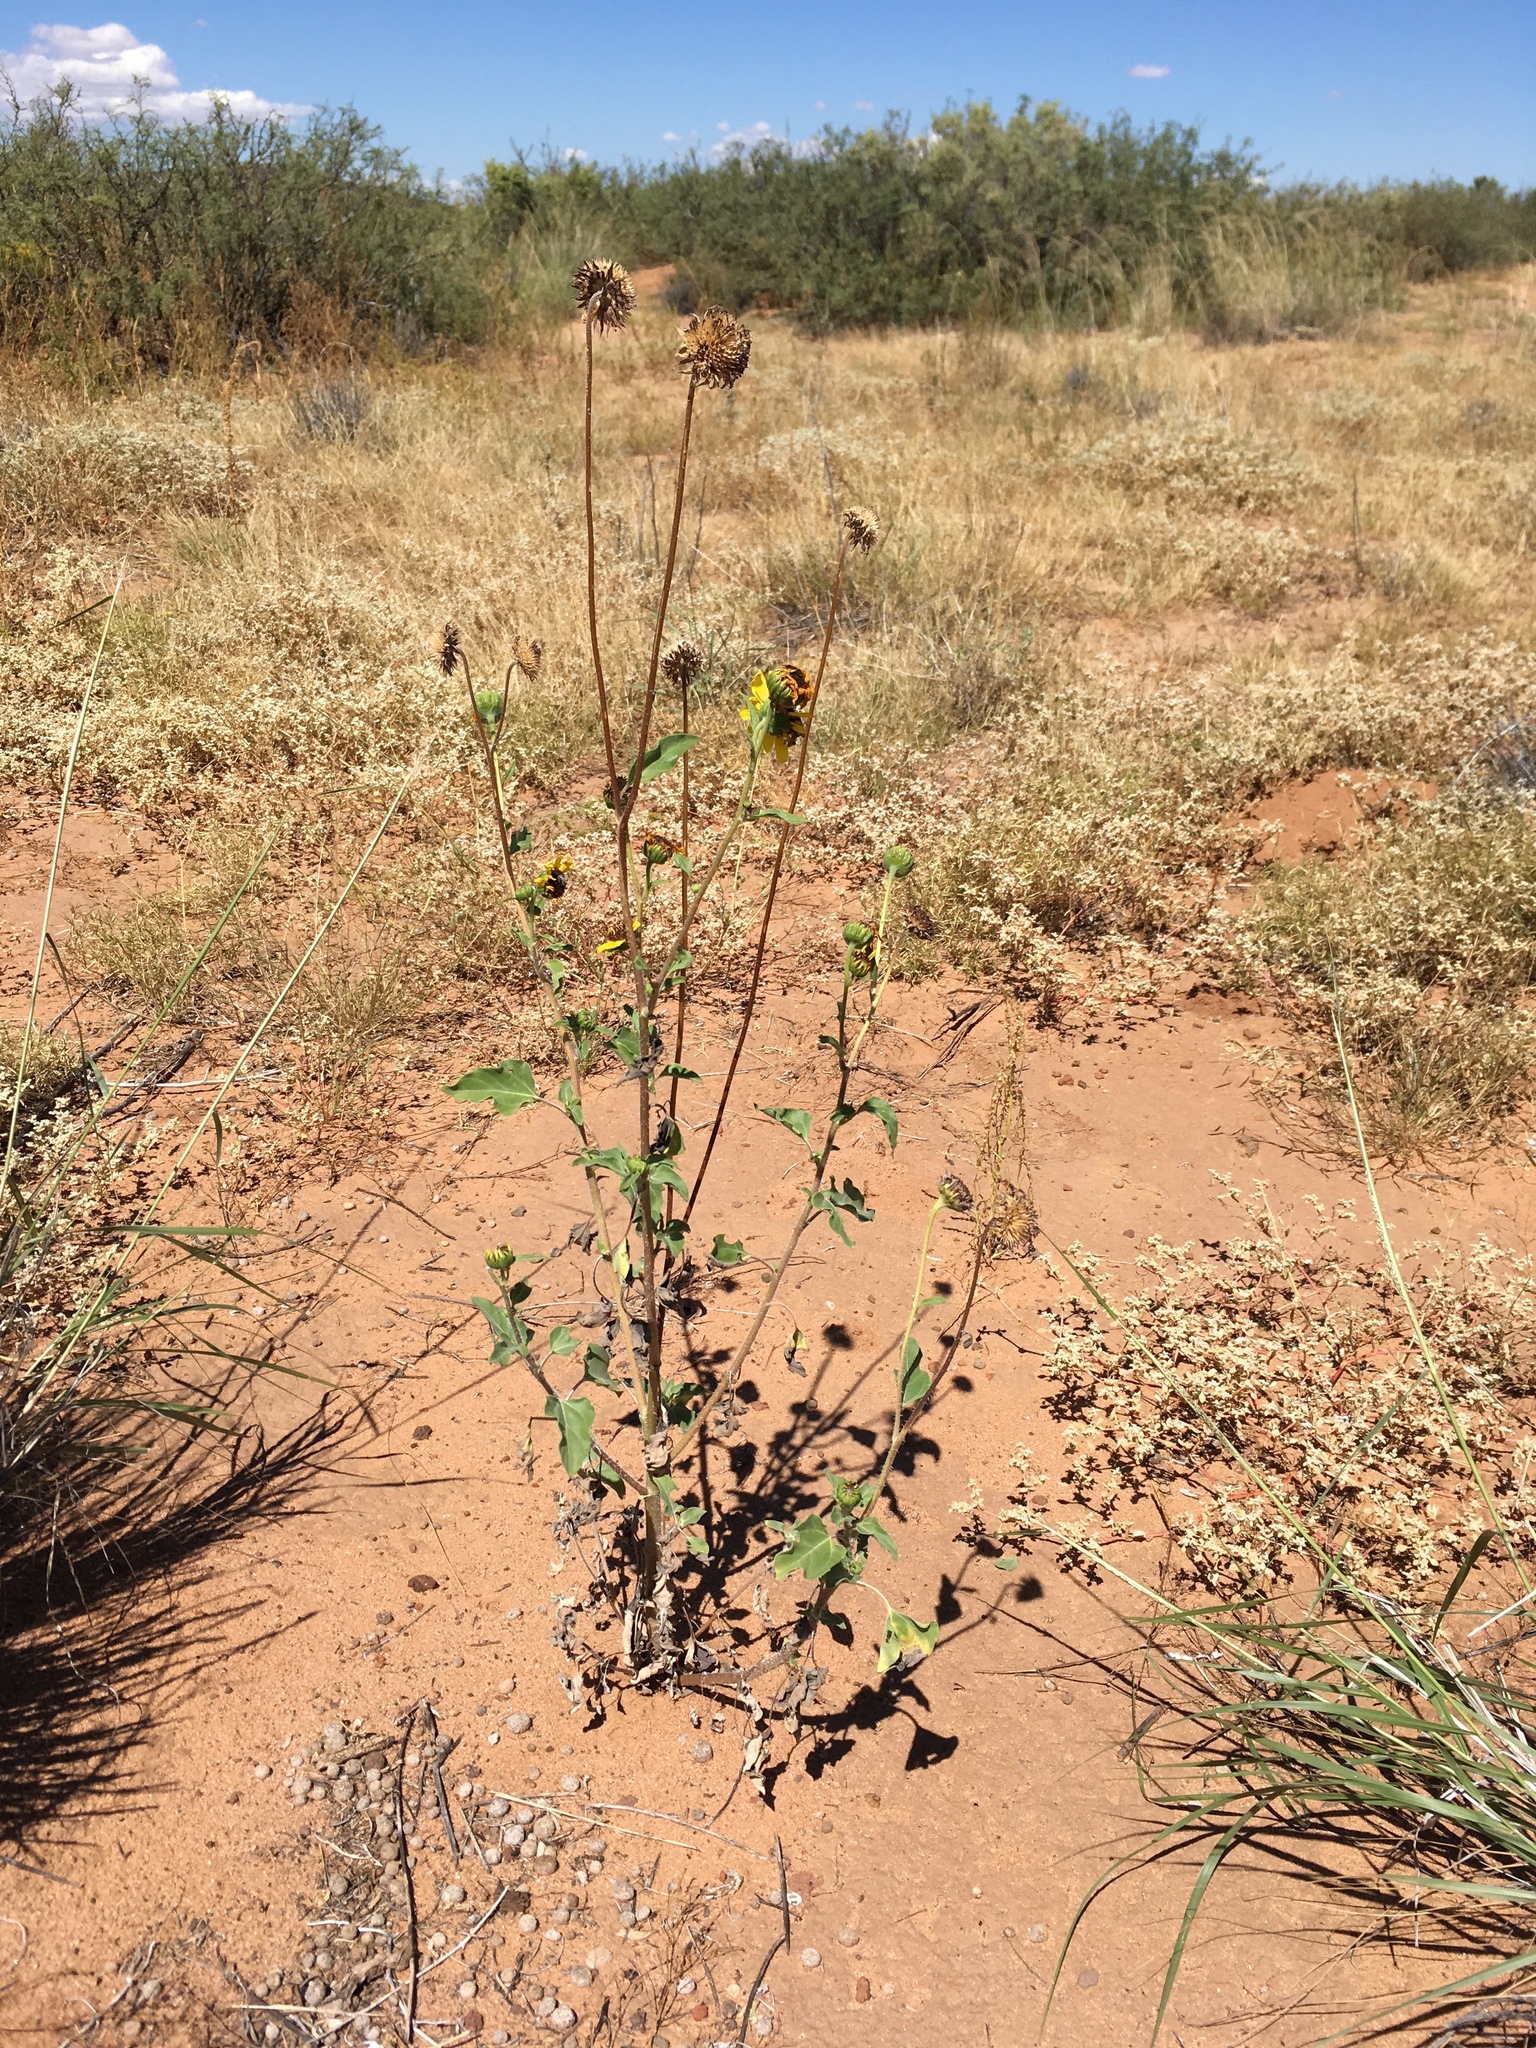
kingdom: Plantae
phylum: Tracheophyta
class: Magnoliopsida
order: Asterales
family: Asteraceae
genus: Helianthus
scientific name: Helianthus petiolaris
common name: Lesser sunflower
